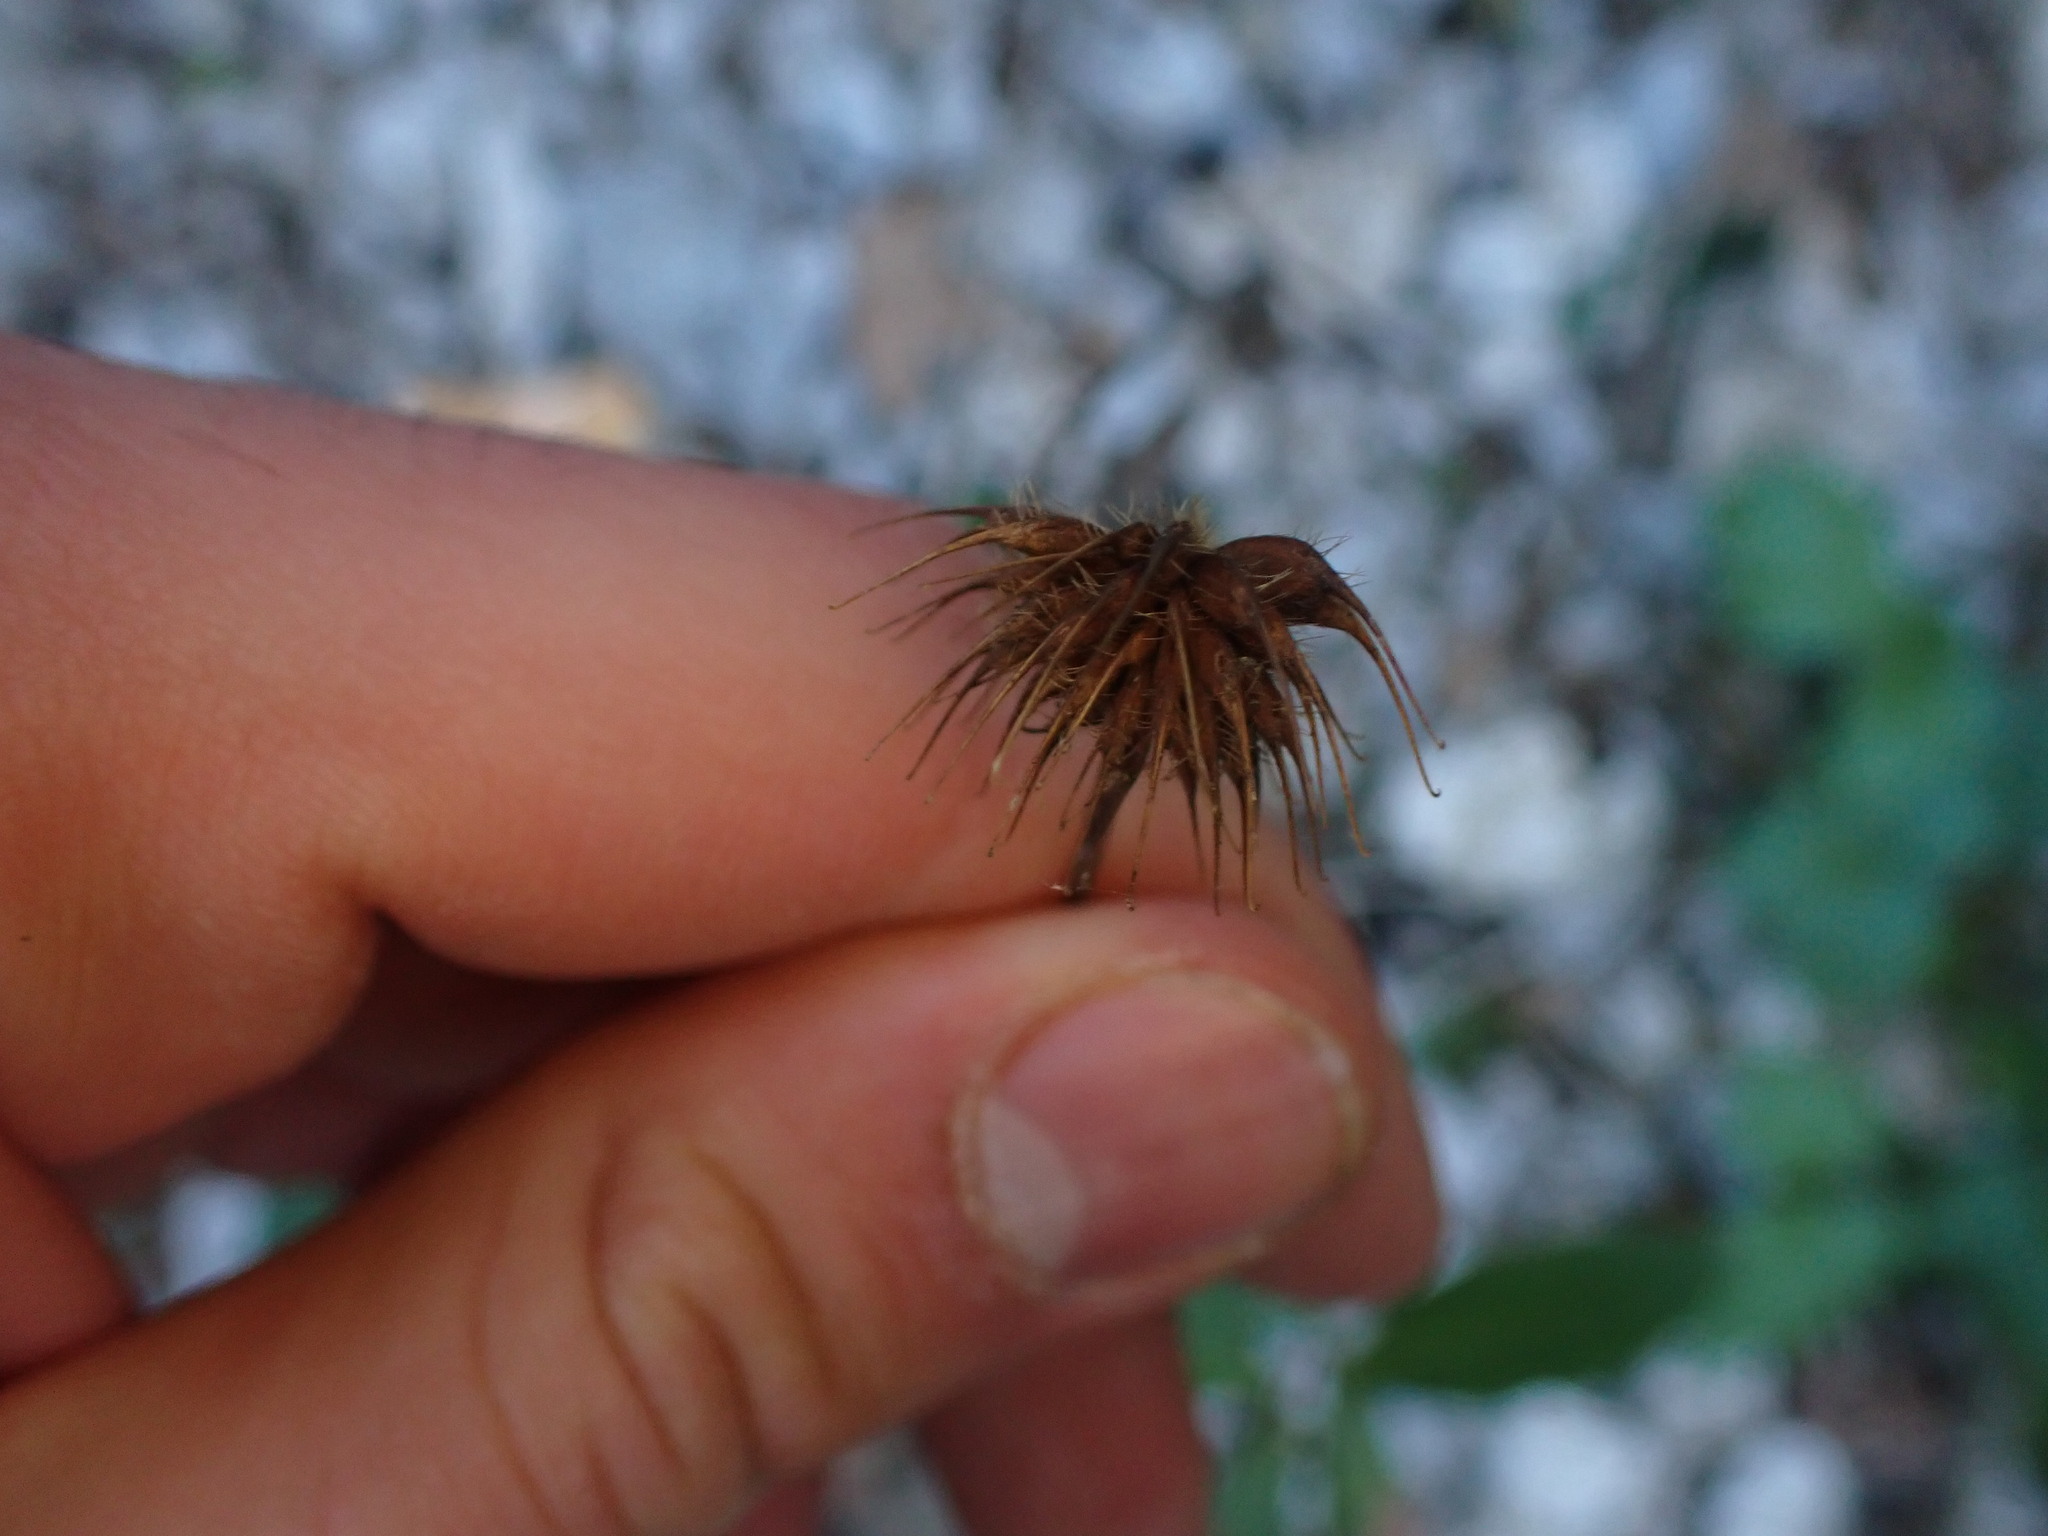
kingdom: Plantae
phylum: Tracheophyta
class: Magnoliopsida
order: Rosales
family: Rosaceae
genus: Geum
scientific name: Geum urbanum
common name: Wood avens
